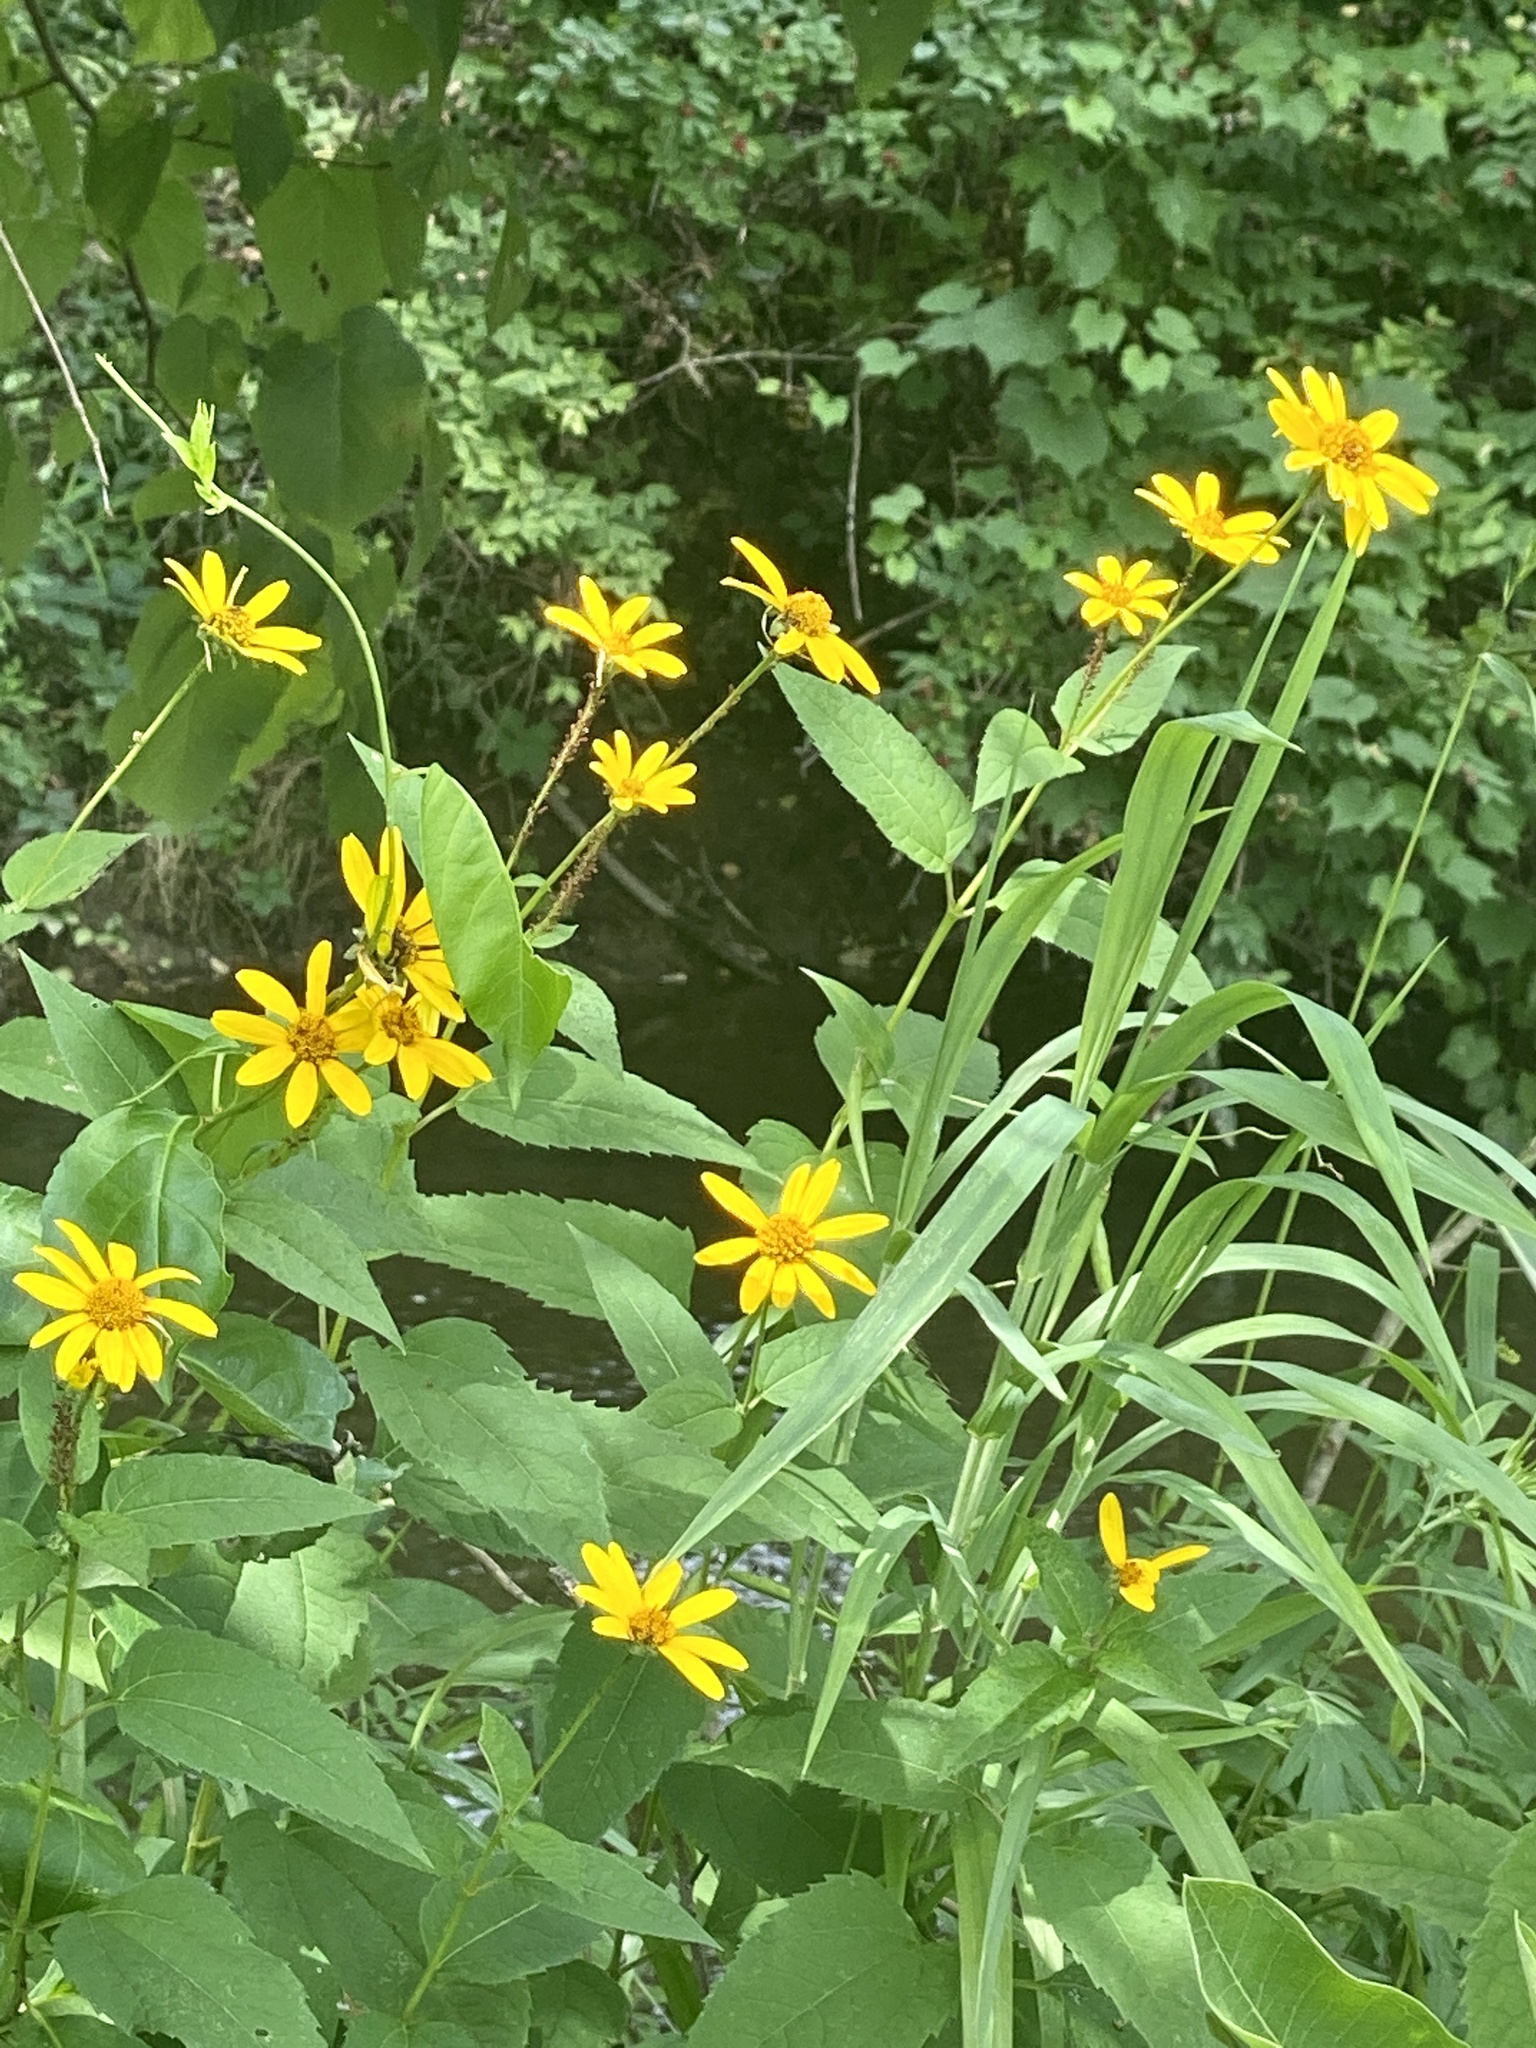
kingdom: Plantae
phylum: Tracheophyta
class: Magnoliopsida
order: Asterales
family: Asteraceae
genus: Heliopsis
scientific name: Heliopsis helianthoides
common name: False sunflower
